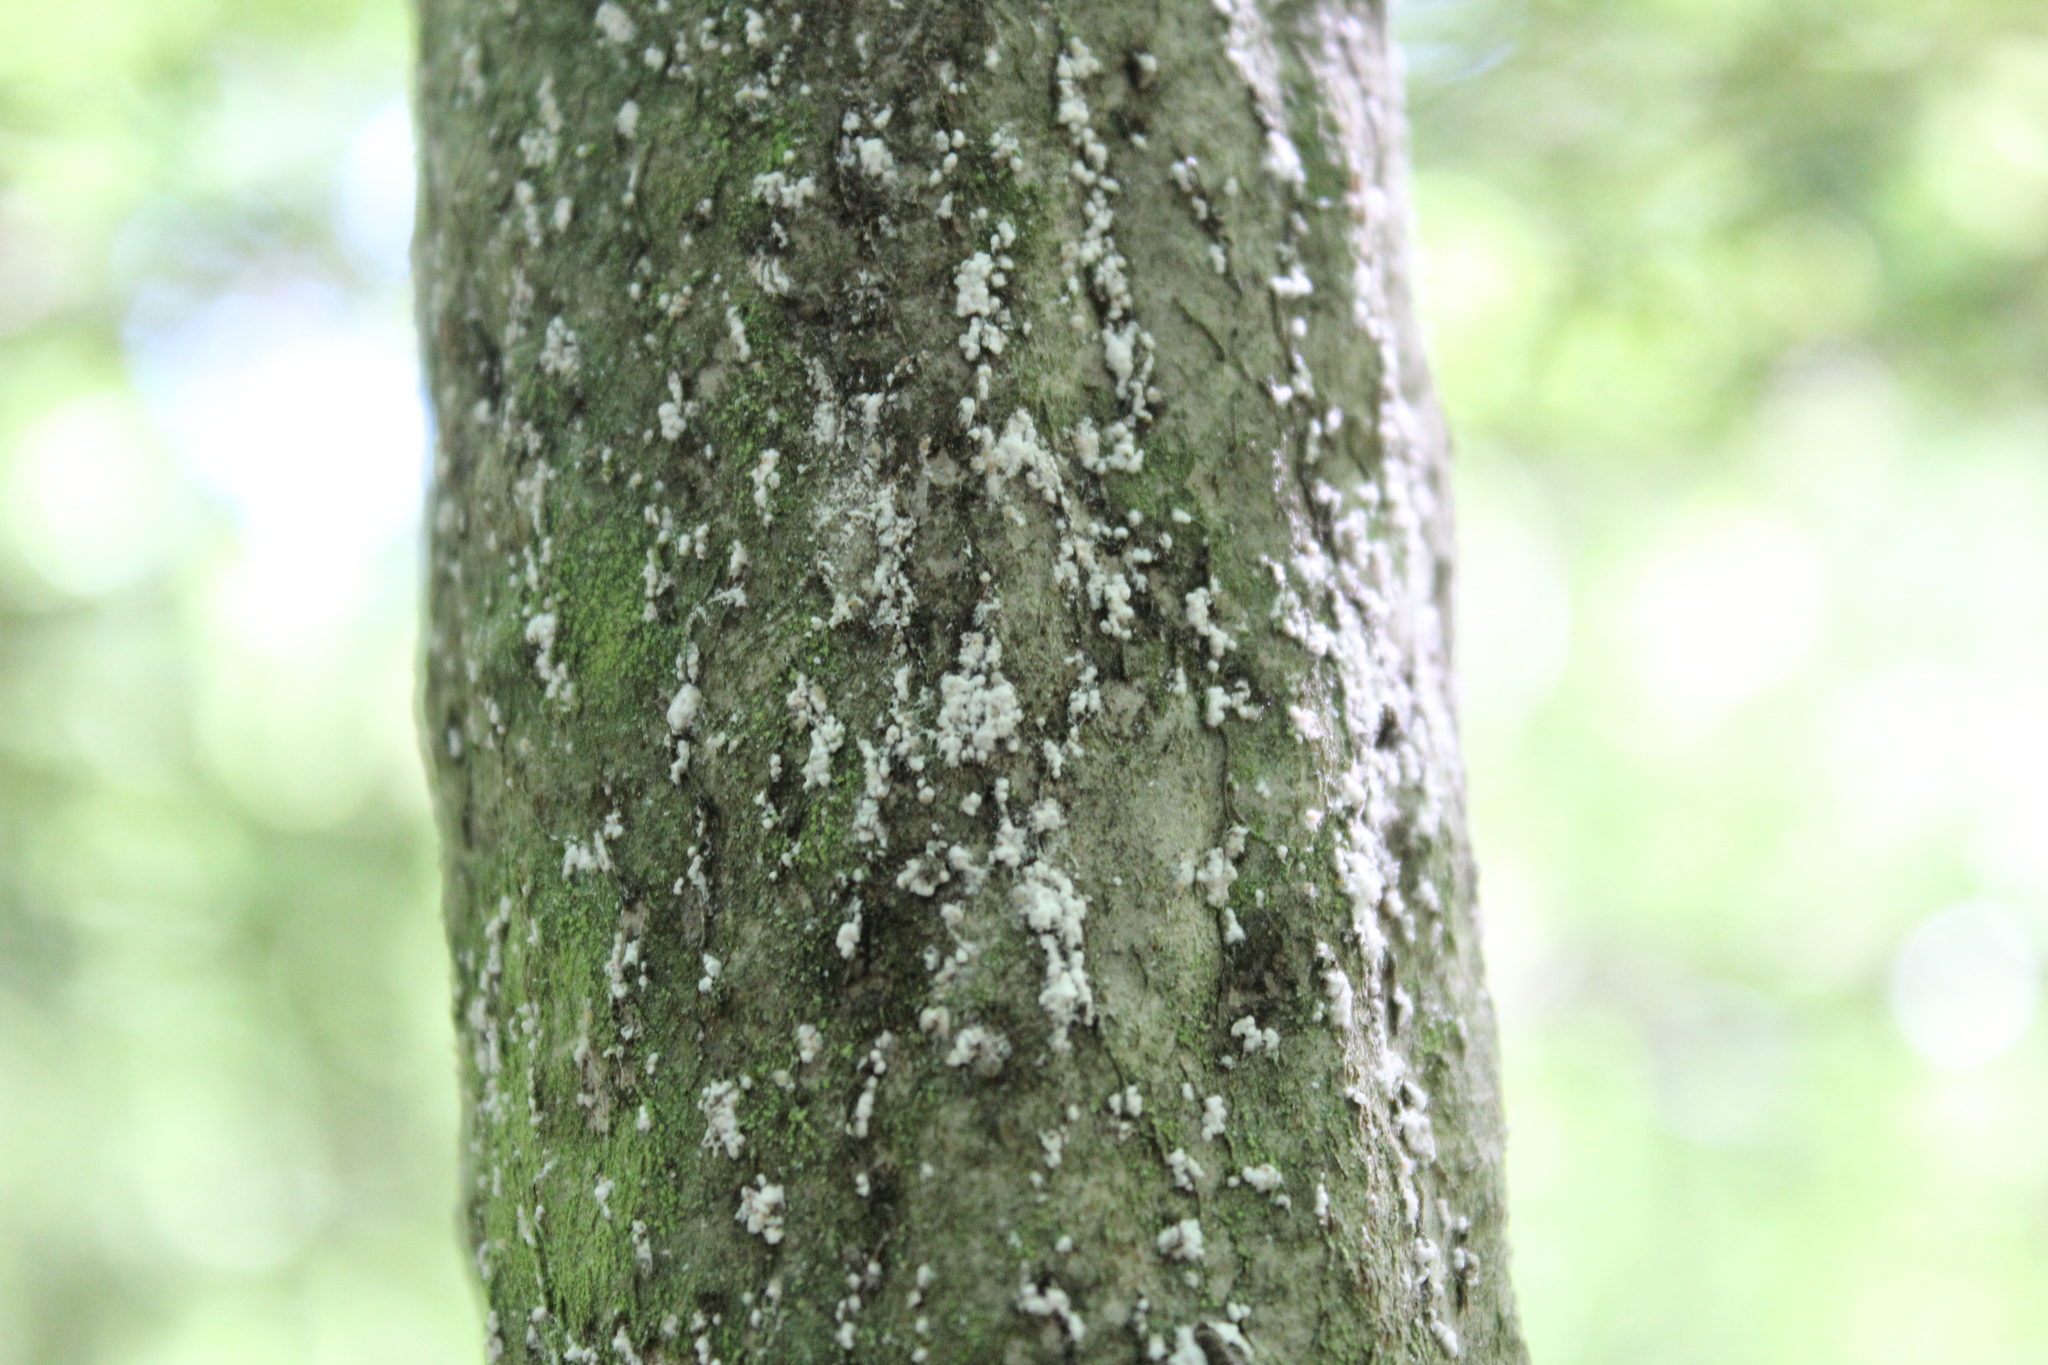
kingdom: Animalia
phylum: Arthropoda
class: Insecta
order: Hemiptera
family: Eriococcidae
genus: Cryptococcus
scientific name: Cryptococcus fagisuga
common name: Beech scale
